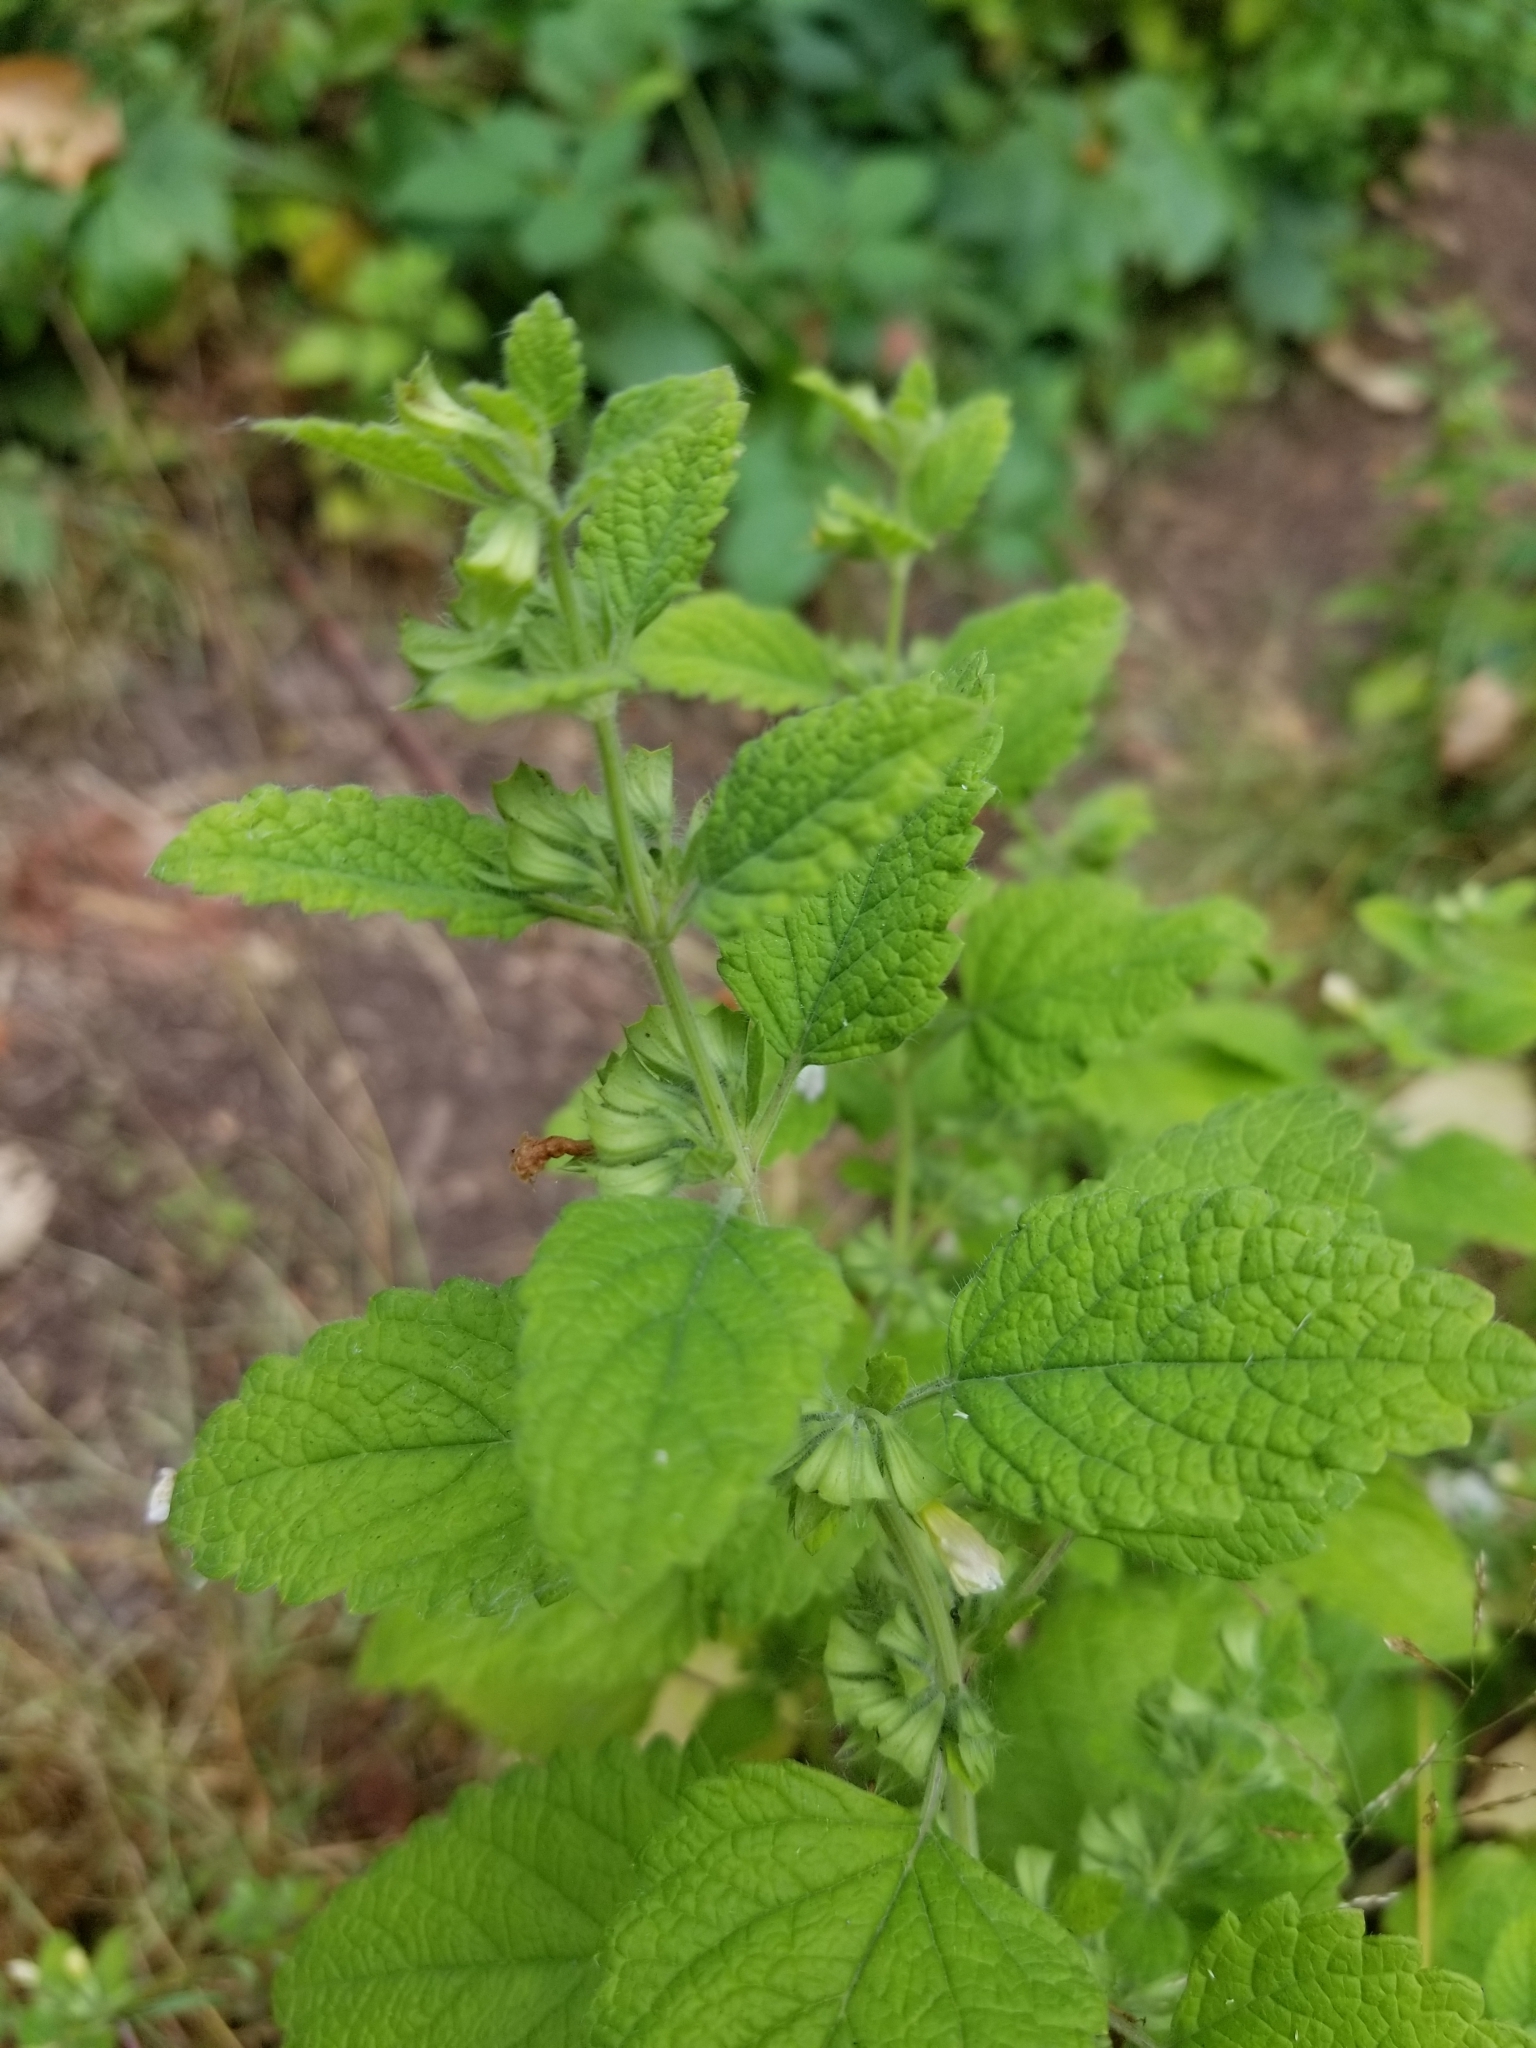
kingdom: Plantae
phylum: Tracheophyta
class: Magnoliopsida
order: Lamiales
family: Lamiaceae
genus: Melissa
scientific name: Melissa officinalis
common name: Balm
